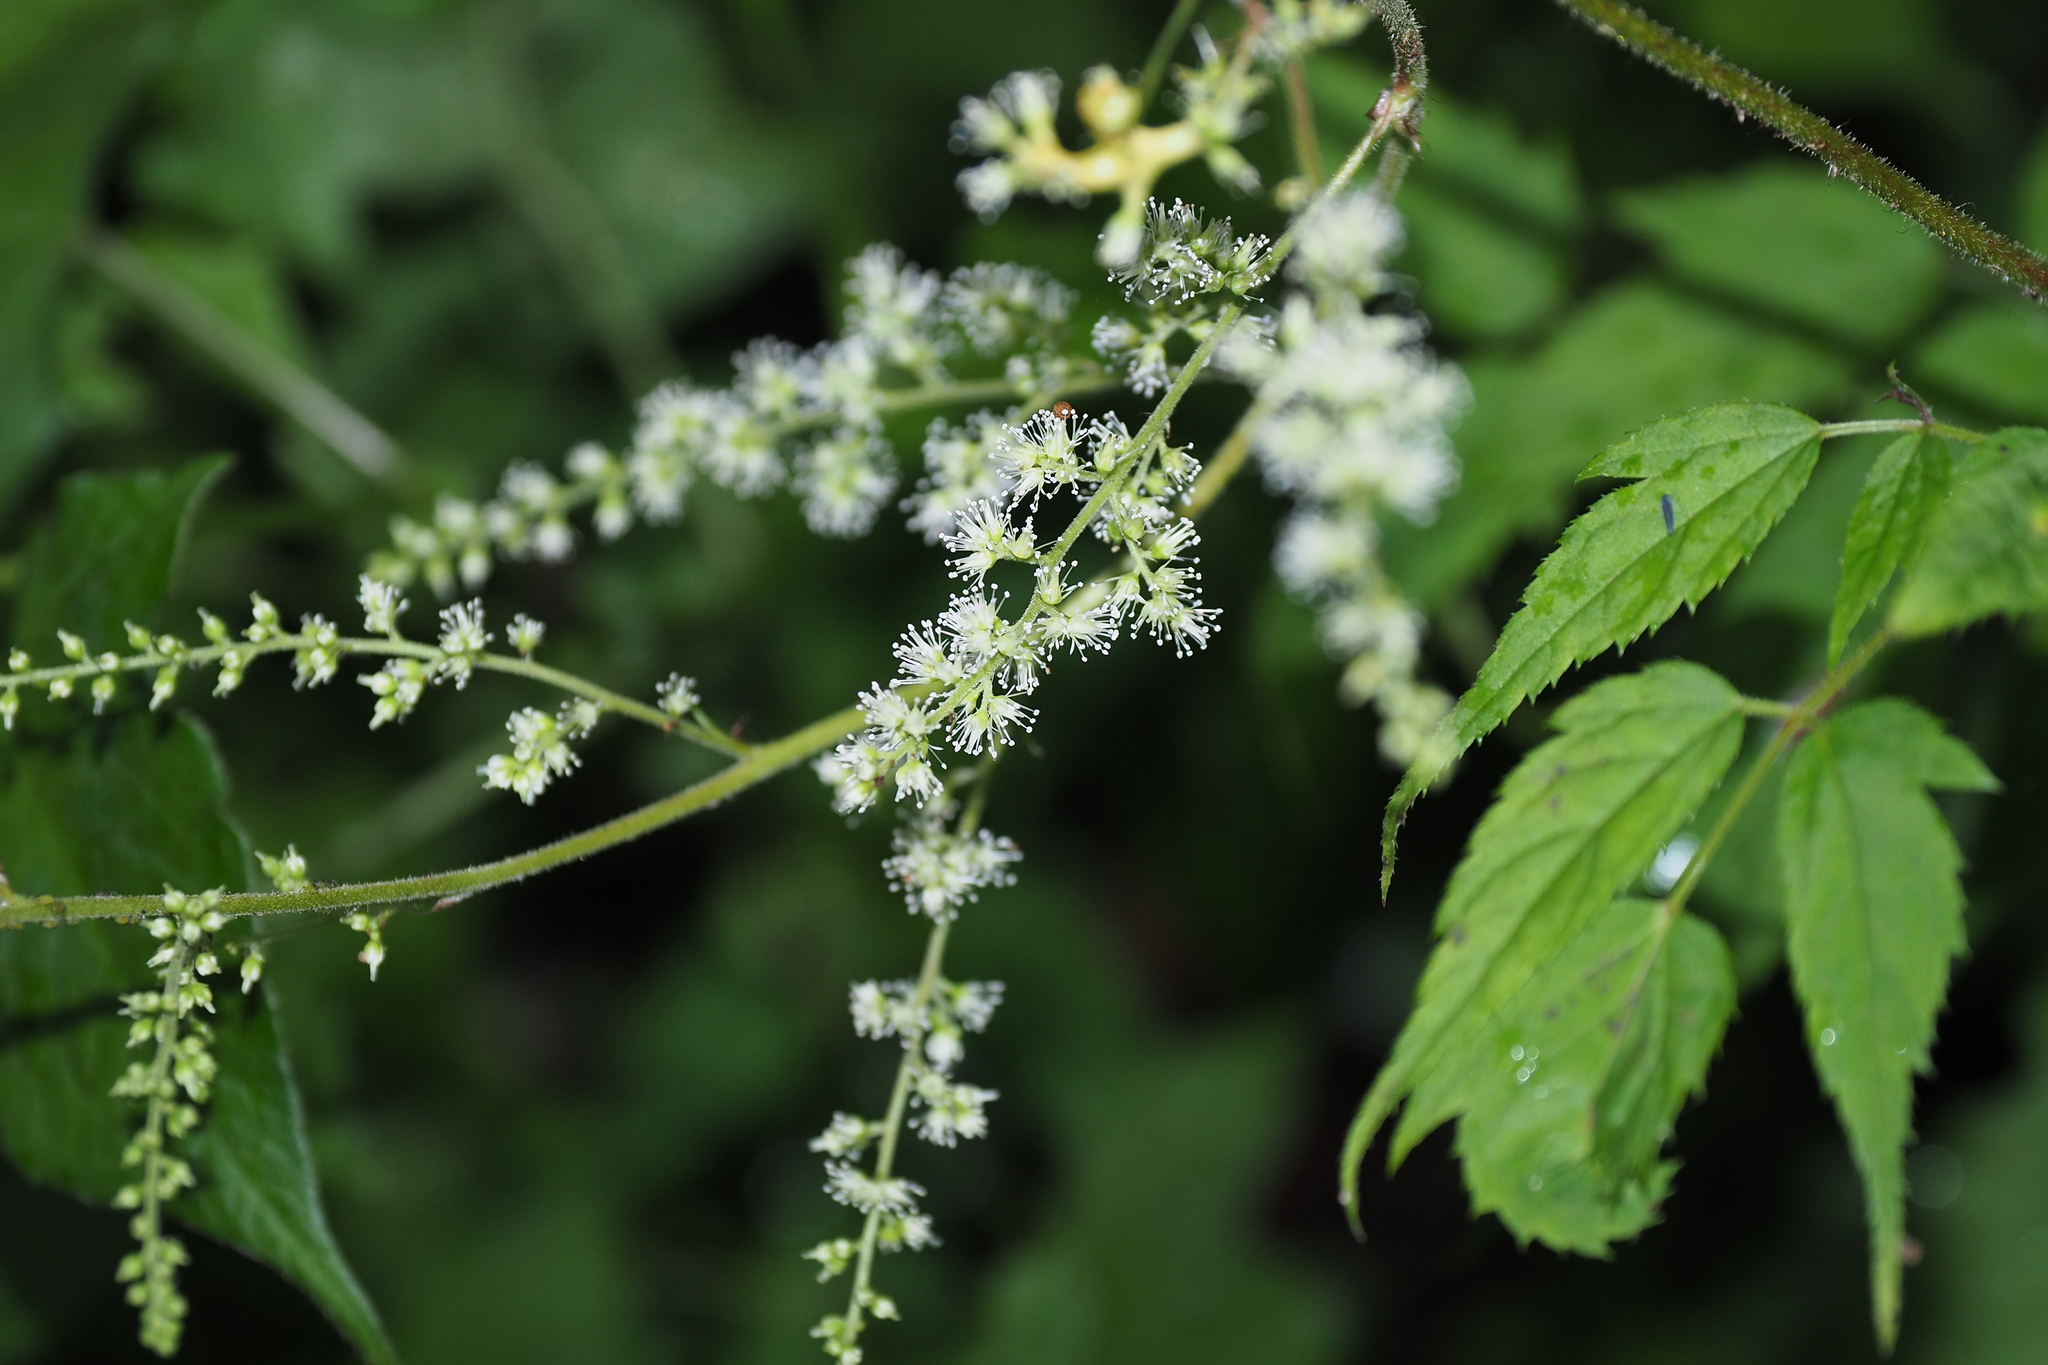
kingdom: Plantae
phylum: Tracheophyta
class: Magnoliopsida
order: Saxifragales
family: Saxifragaceae
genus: Astilbe
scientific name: Astilbe longicarpa
